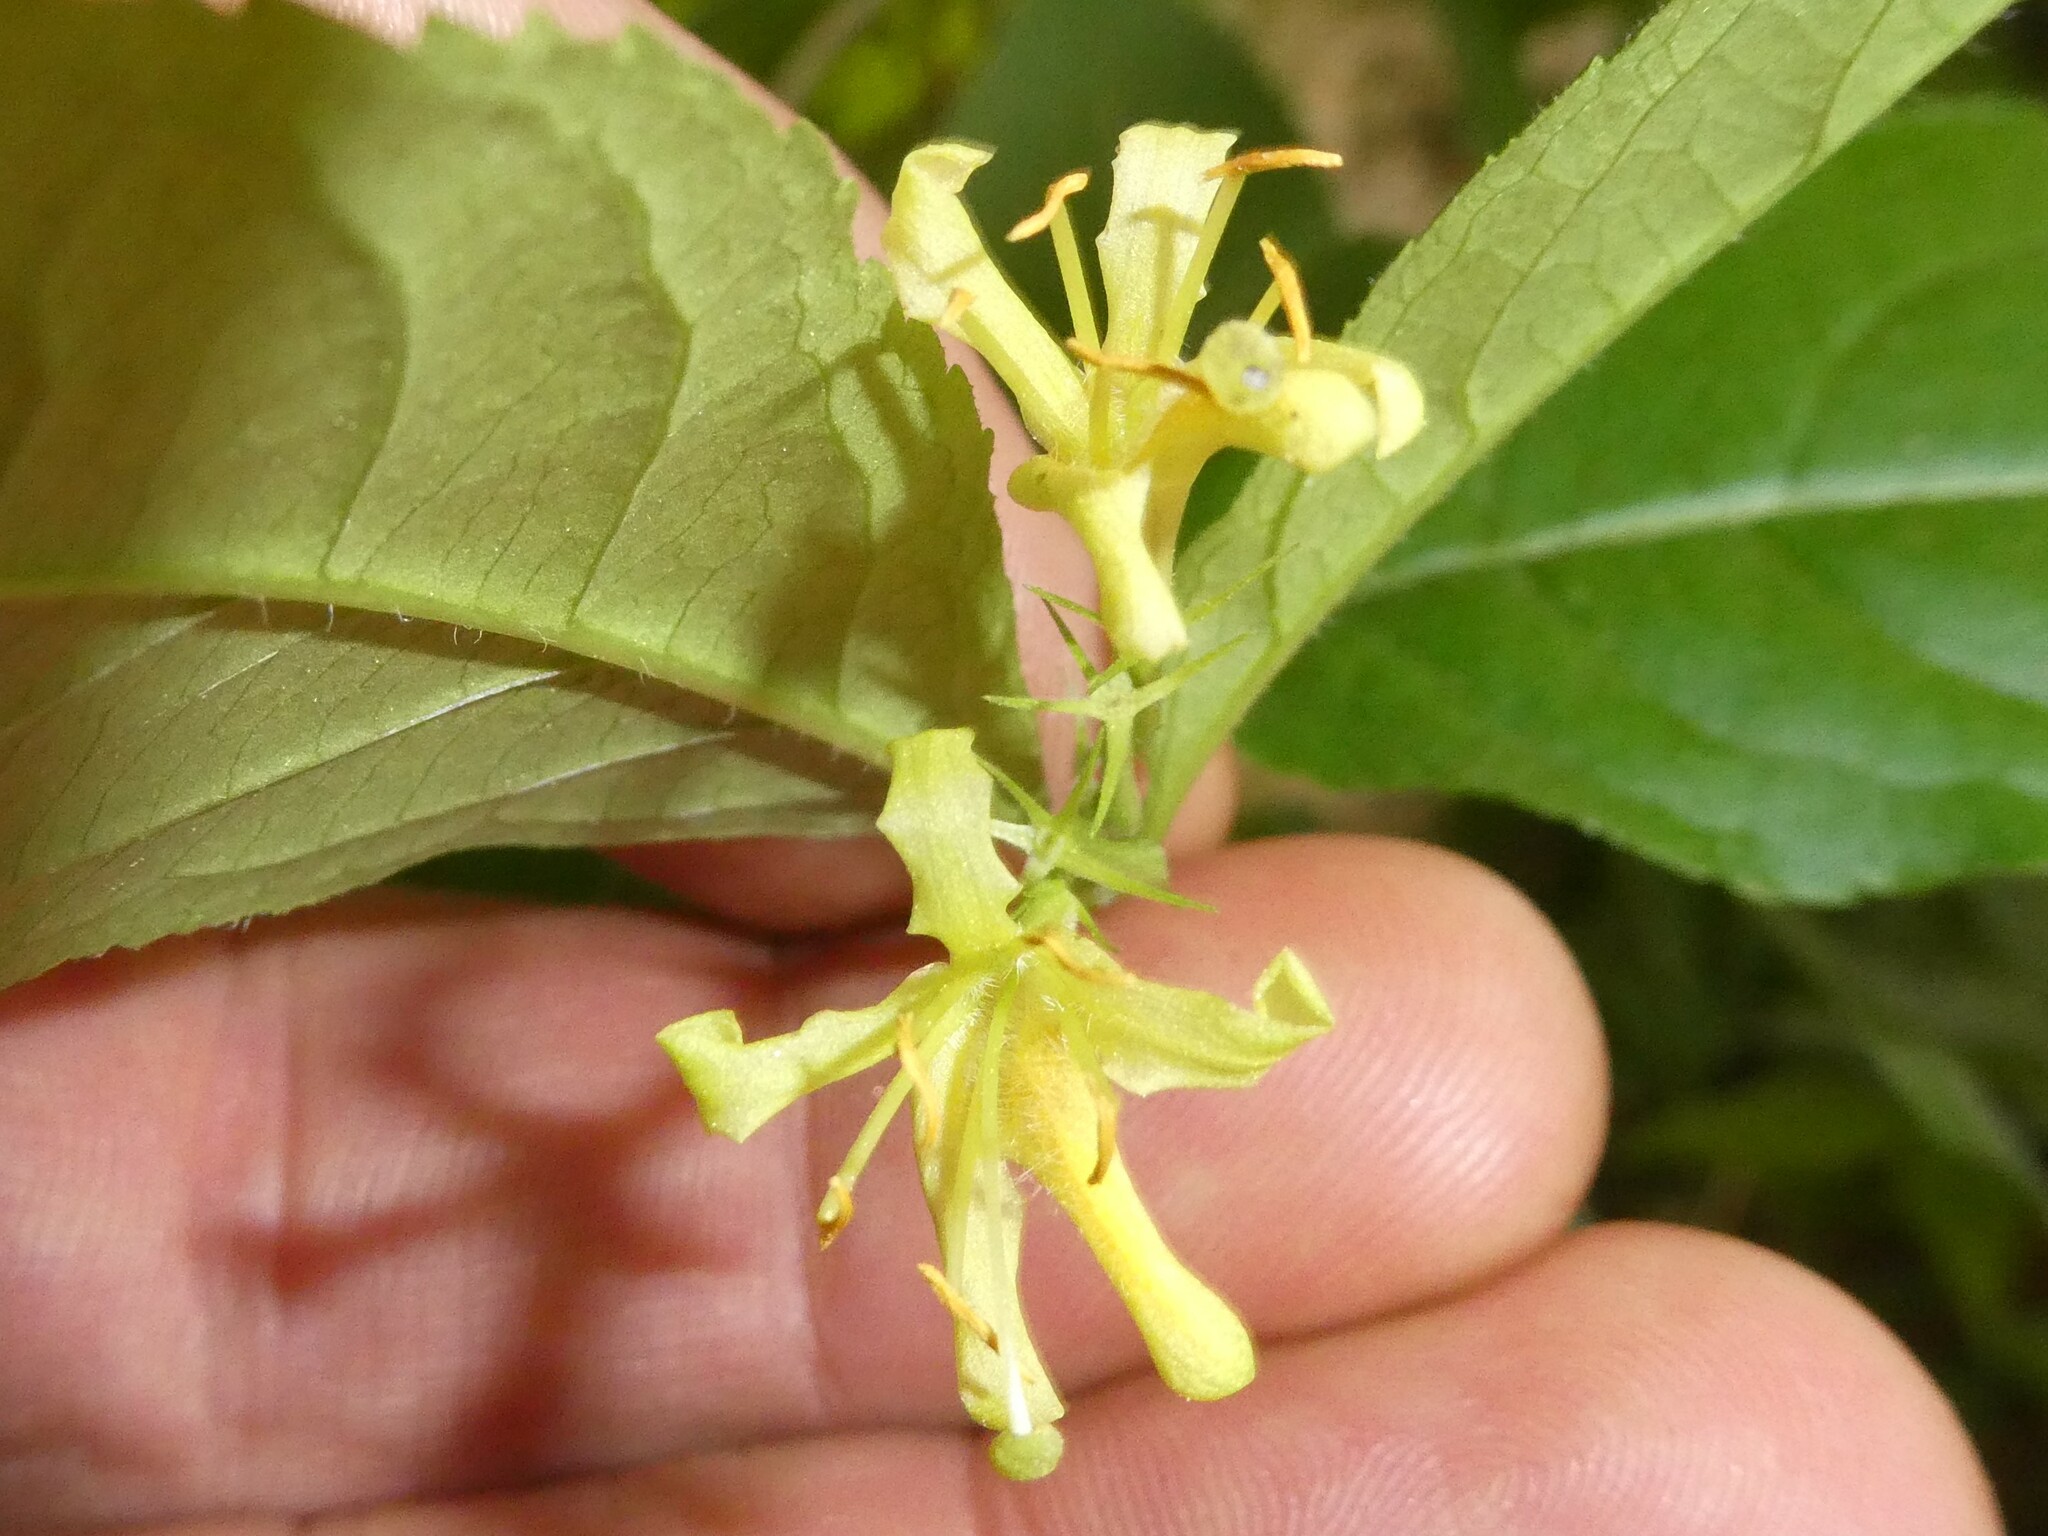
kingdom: Plantae
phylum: Tracheophyta
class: Magnoliopsida
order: Dipsacales
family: Caprifoliaceae
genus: Diervilla
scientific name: Diervilla lonicera
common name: Bush-honeysuckle
